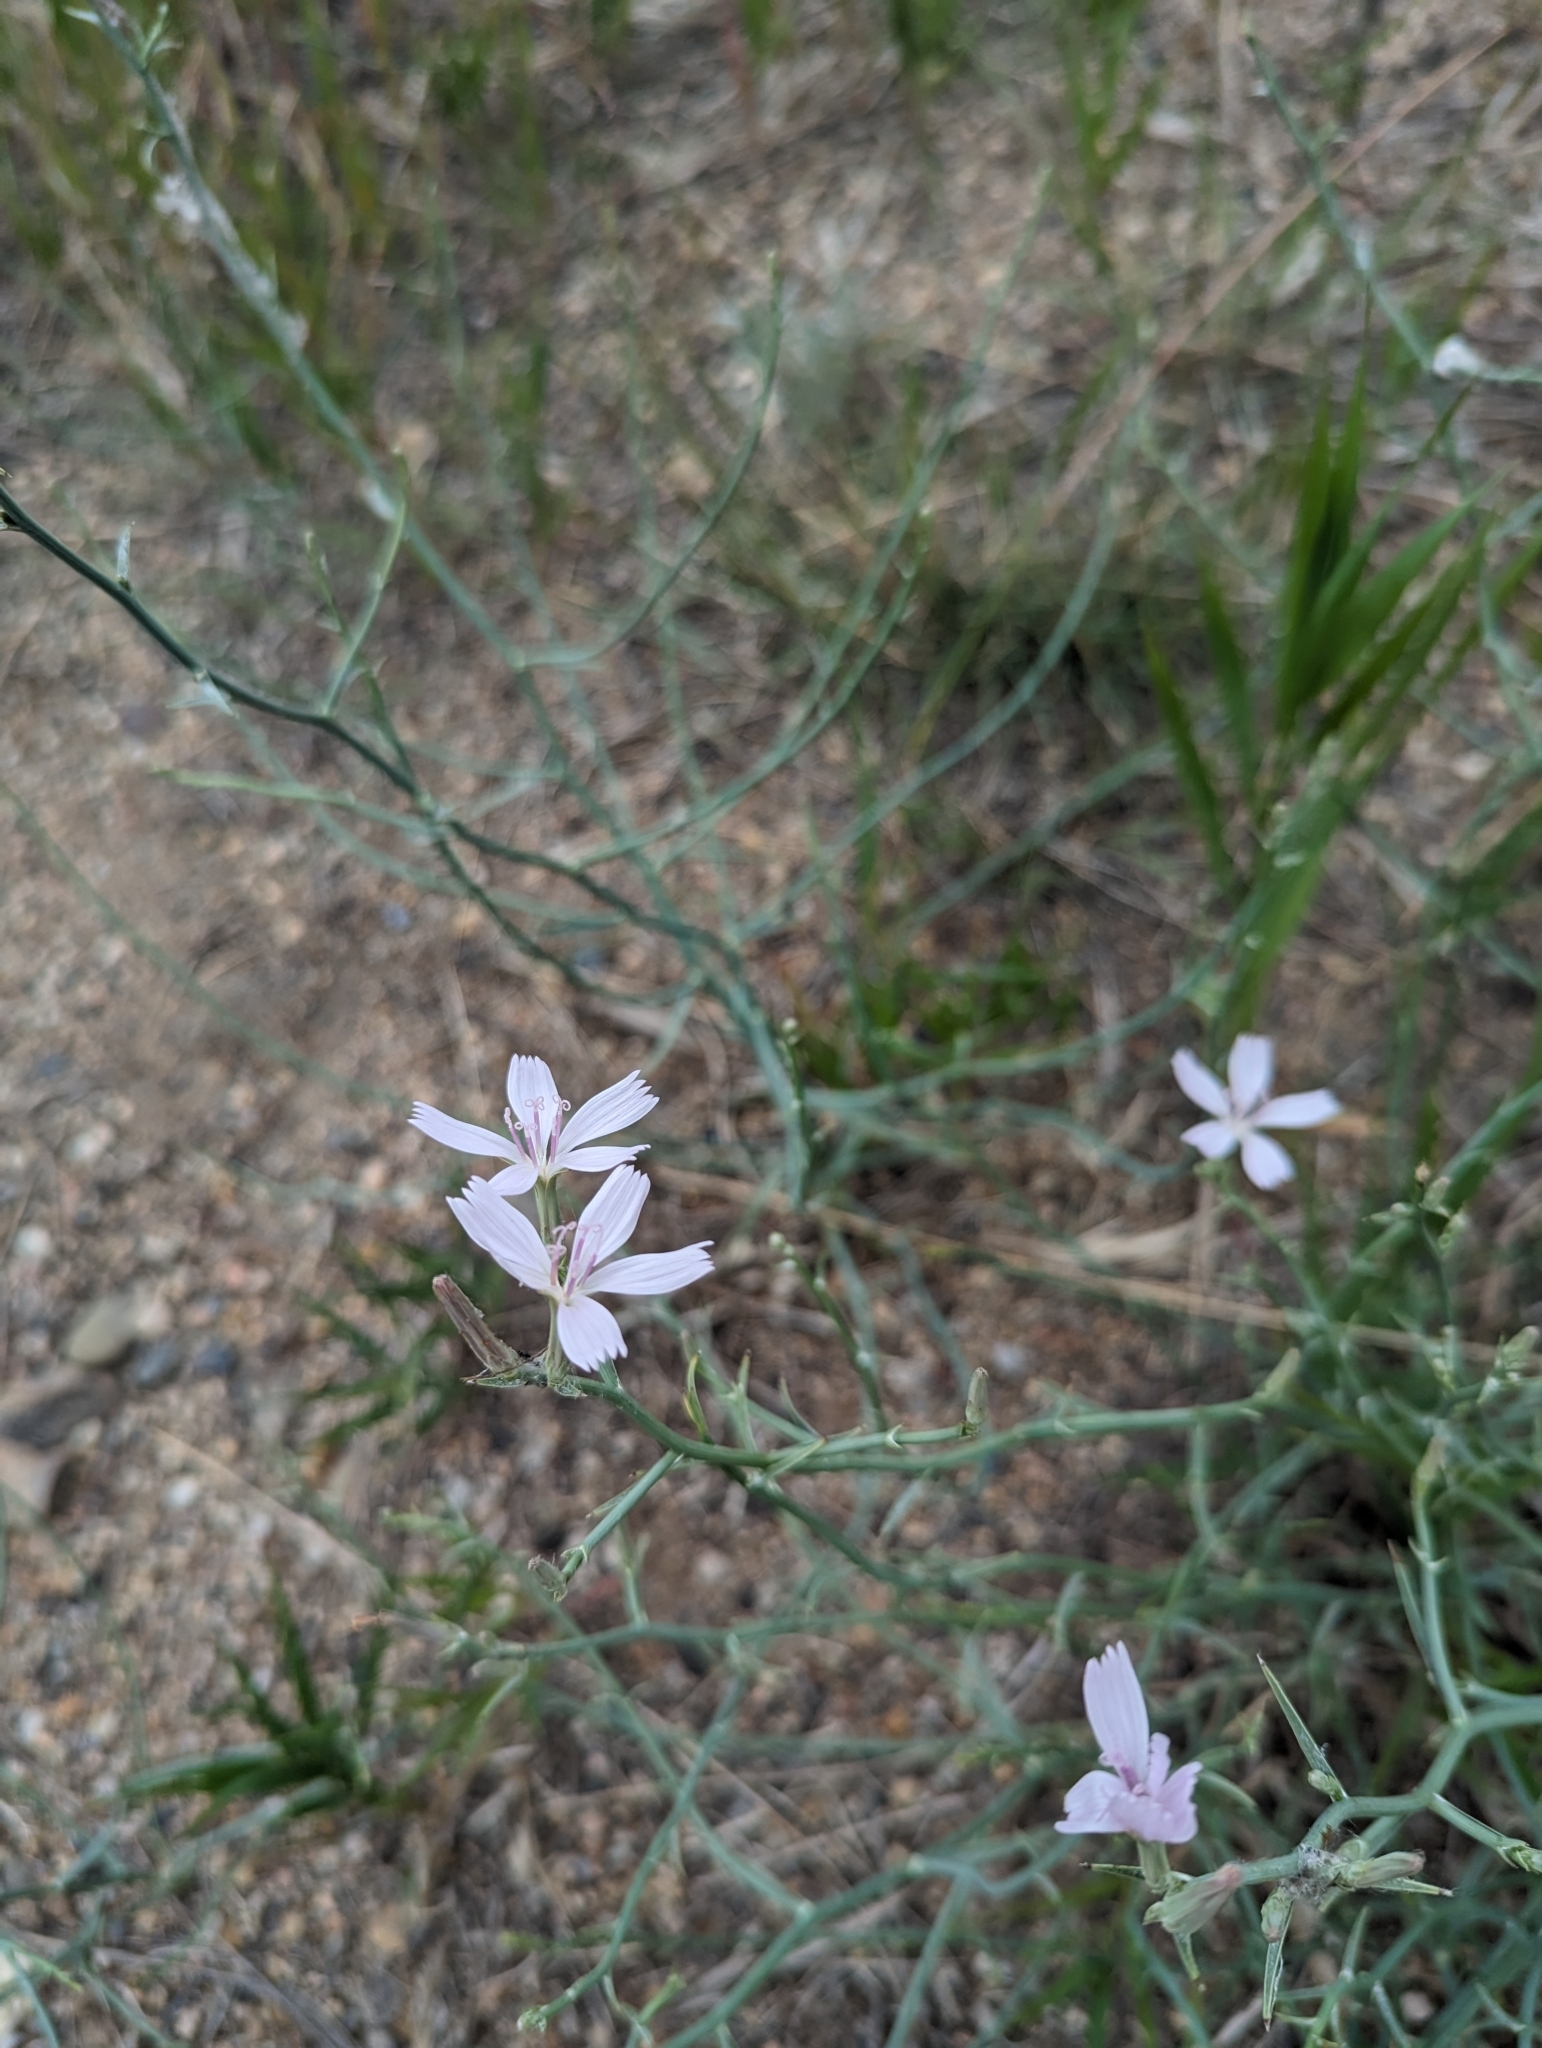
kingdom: Plantae
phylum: Tracheophyta
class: Magnoliopsida
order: Asterales
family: Asteraceae
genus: Lygodesmia
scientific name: Lygodesmia juncea
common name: Common skeletonweed
